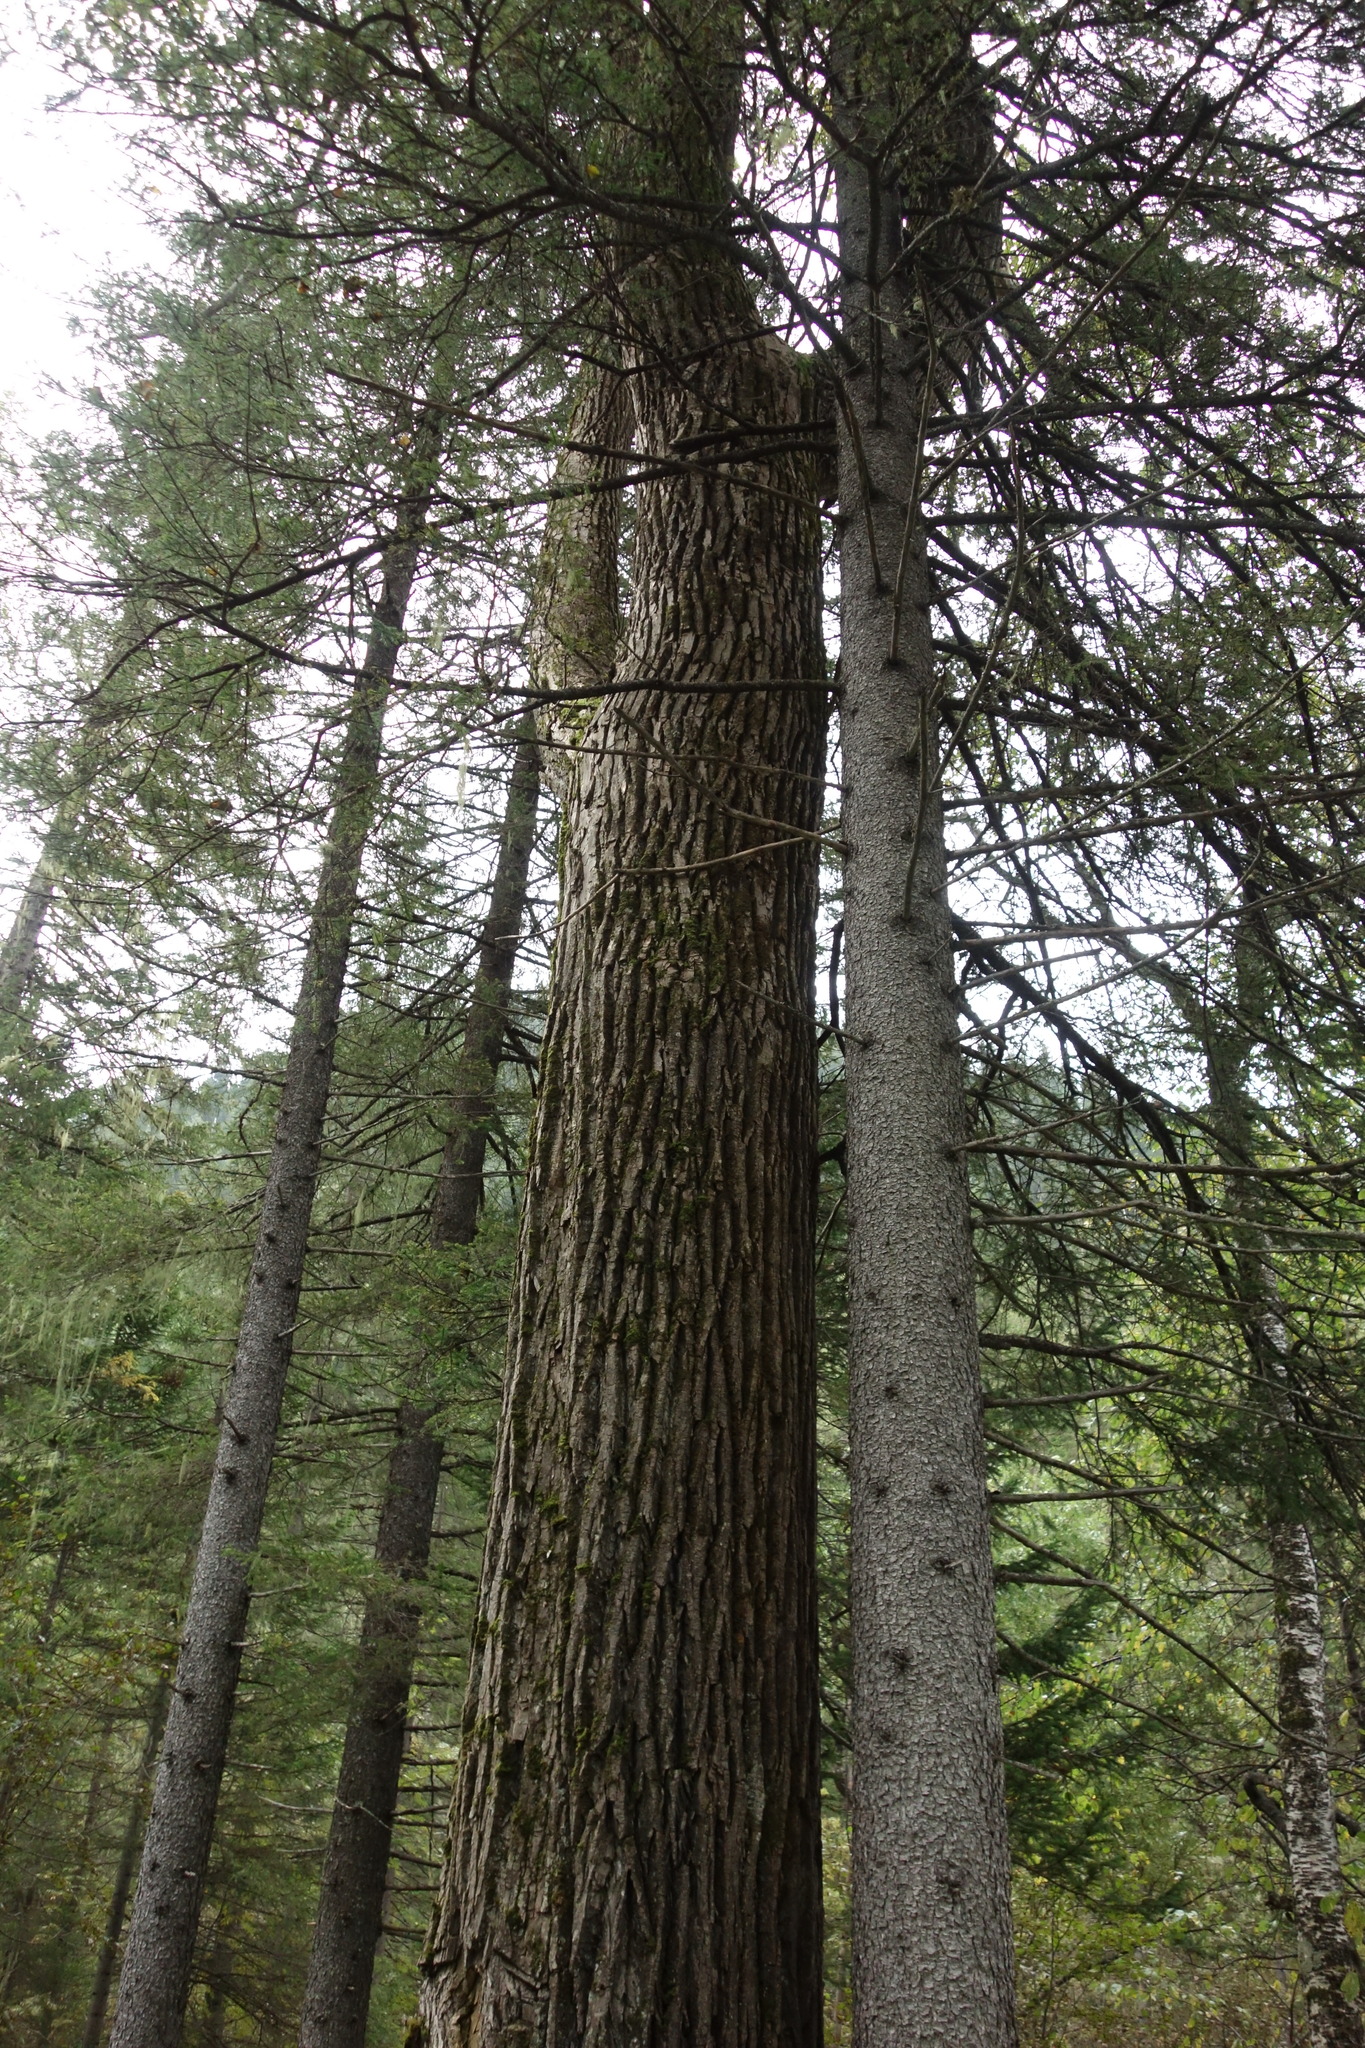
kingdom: Plantae
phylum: Tracheophyta
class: Magnoliopsida
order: Malpighiales
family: Salicaceae
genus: Populus
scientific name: Populus suaveolens
